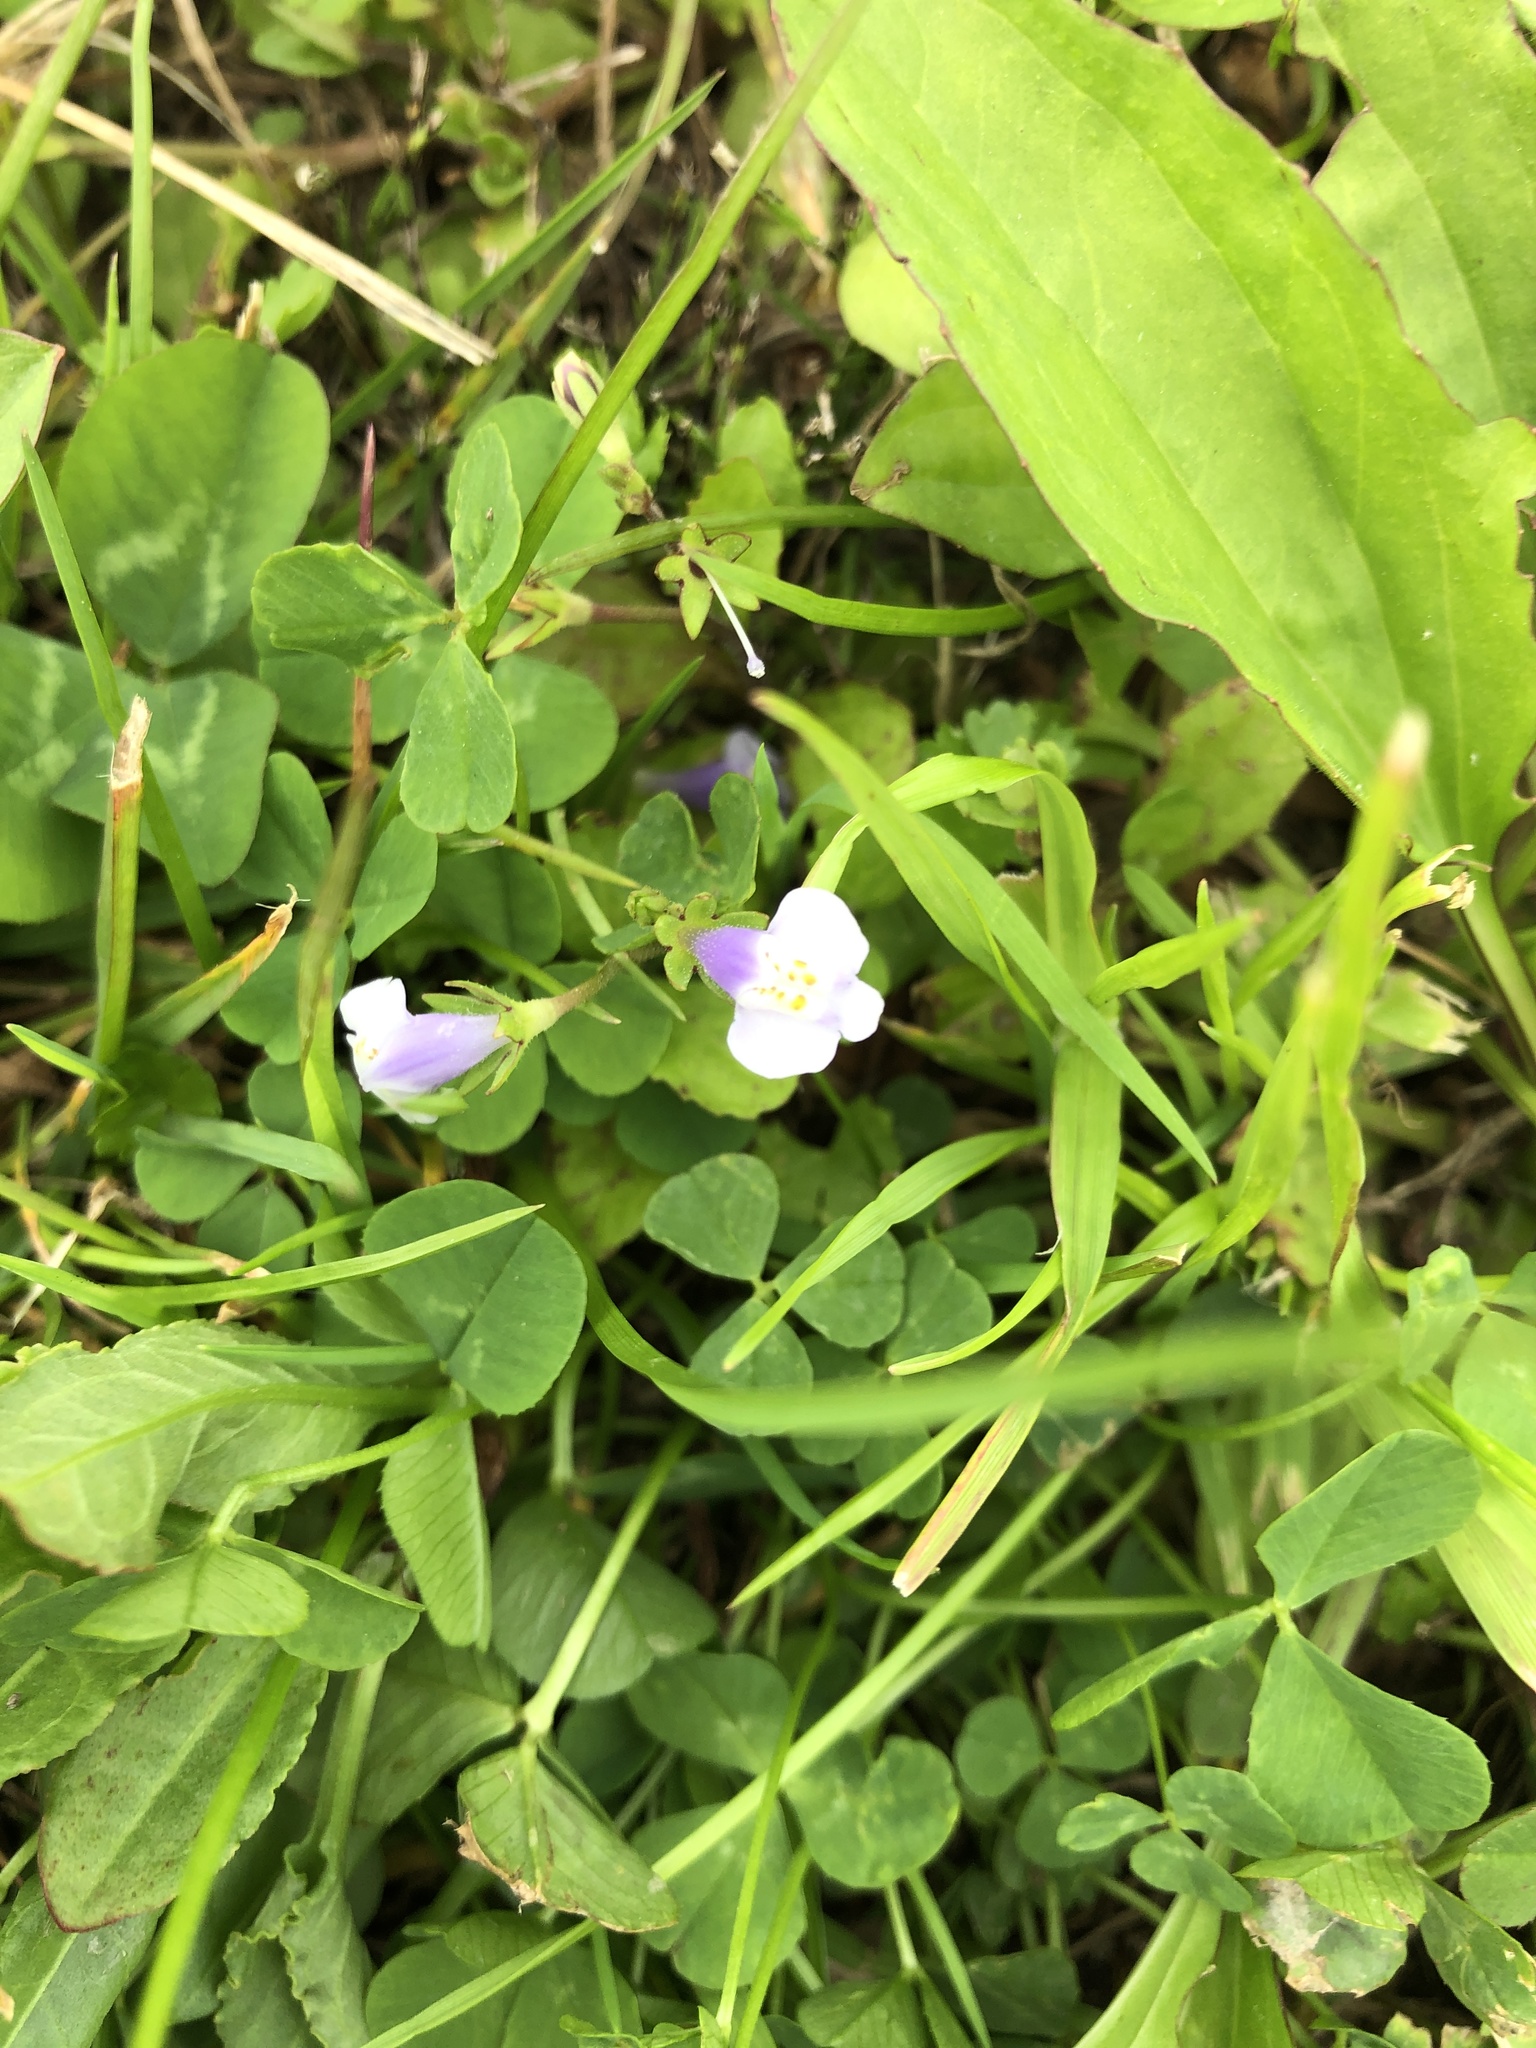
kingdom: Plantae
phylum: Tracheophyta
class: Magnoliopsida
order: Lamiales
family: Mazaceae
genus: Mazus
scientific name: Mazus pumilus
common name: Japanese mazus
